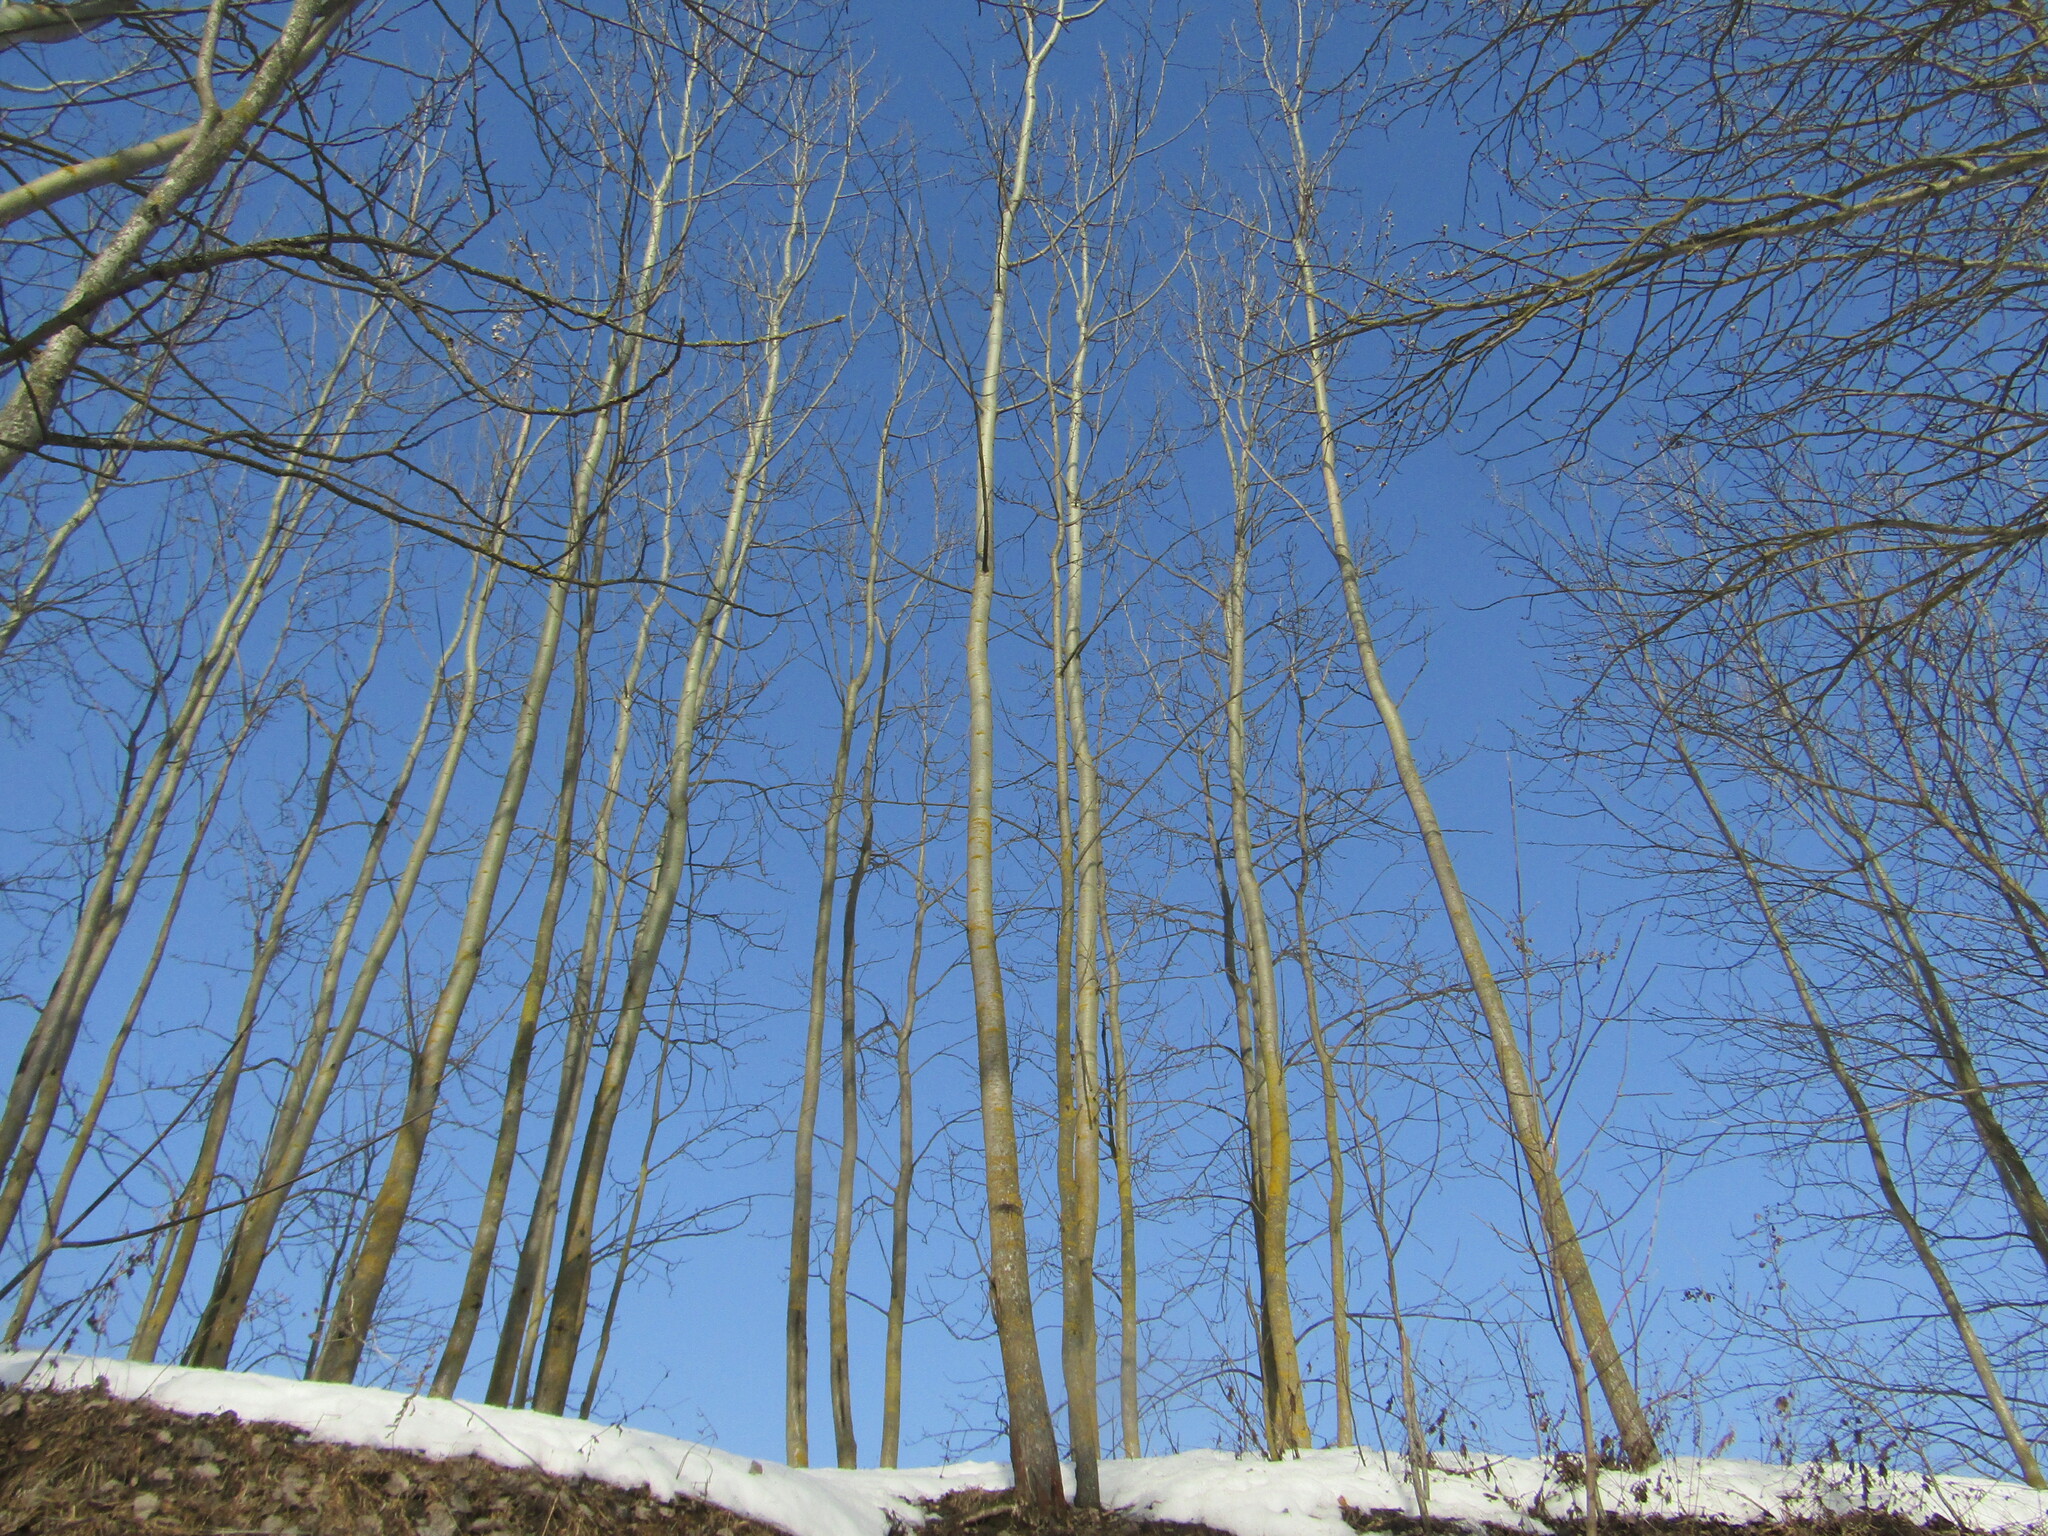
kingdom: Plantae
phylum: Tracheophyta
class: Magnoliopsida
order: Malpighiales
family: Salicaceae
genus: Populus
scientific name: Populus tremula
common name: European aspen
